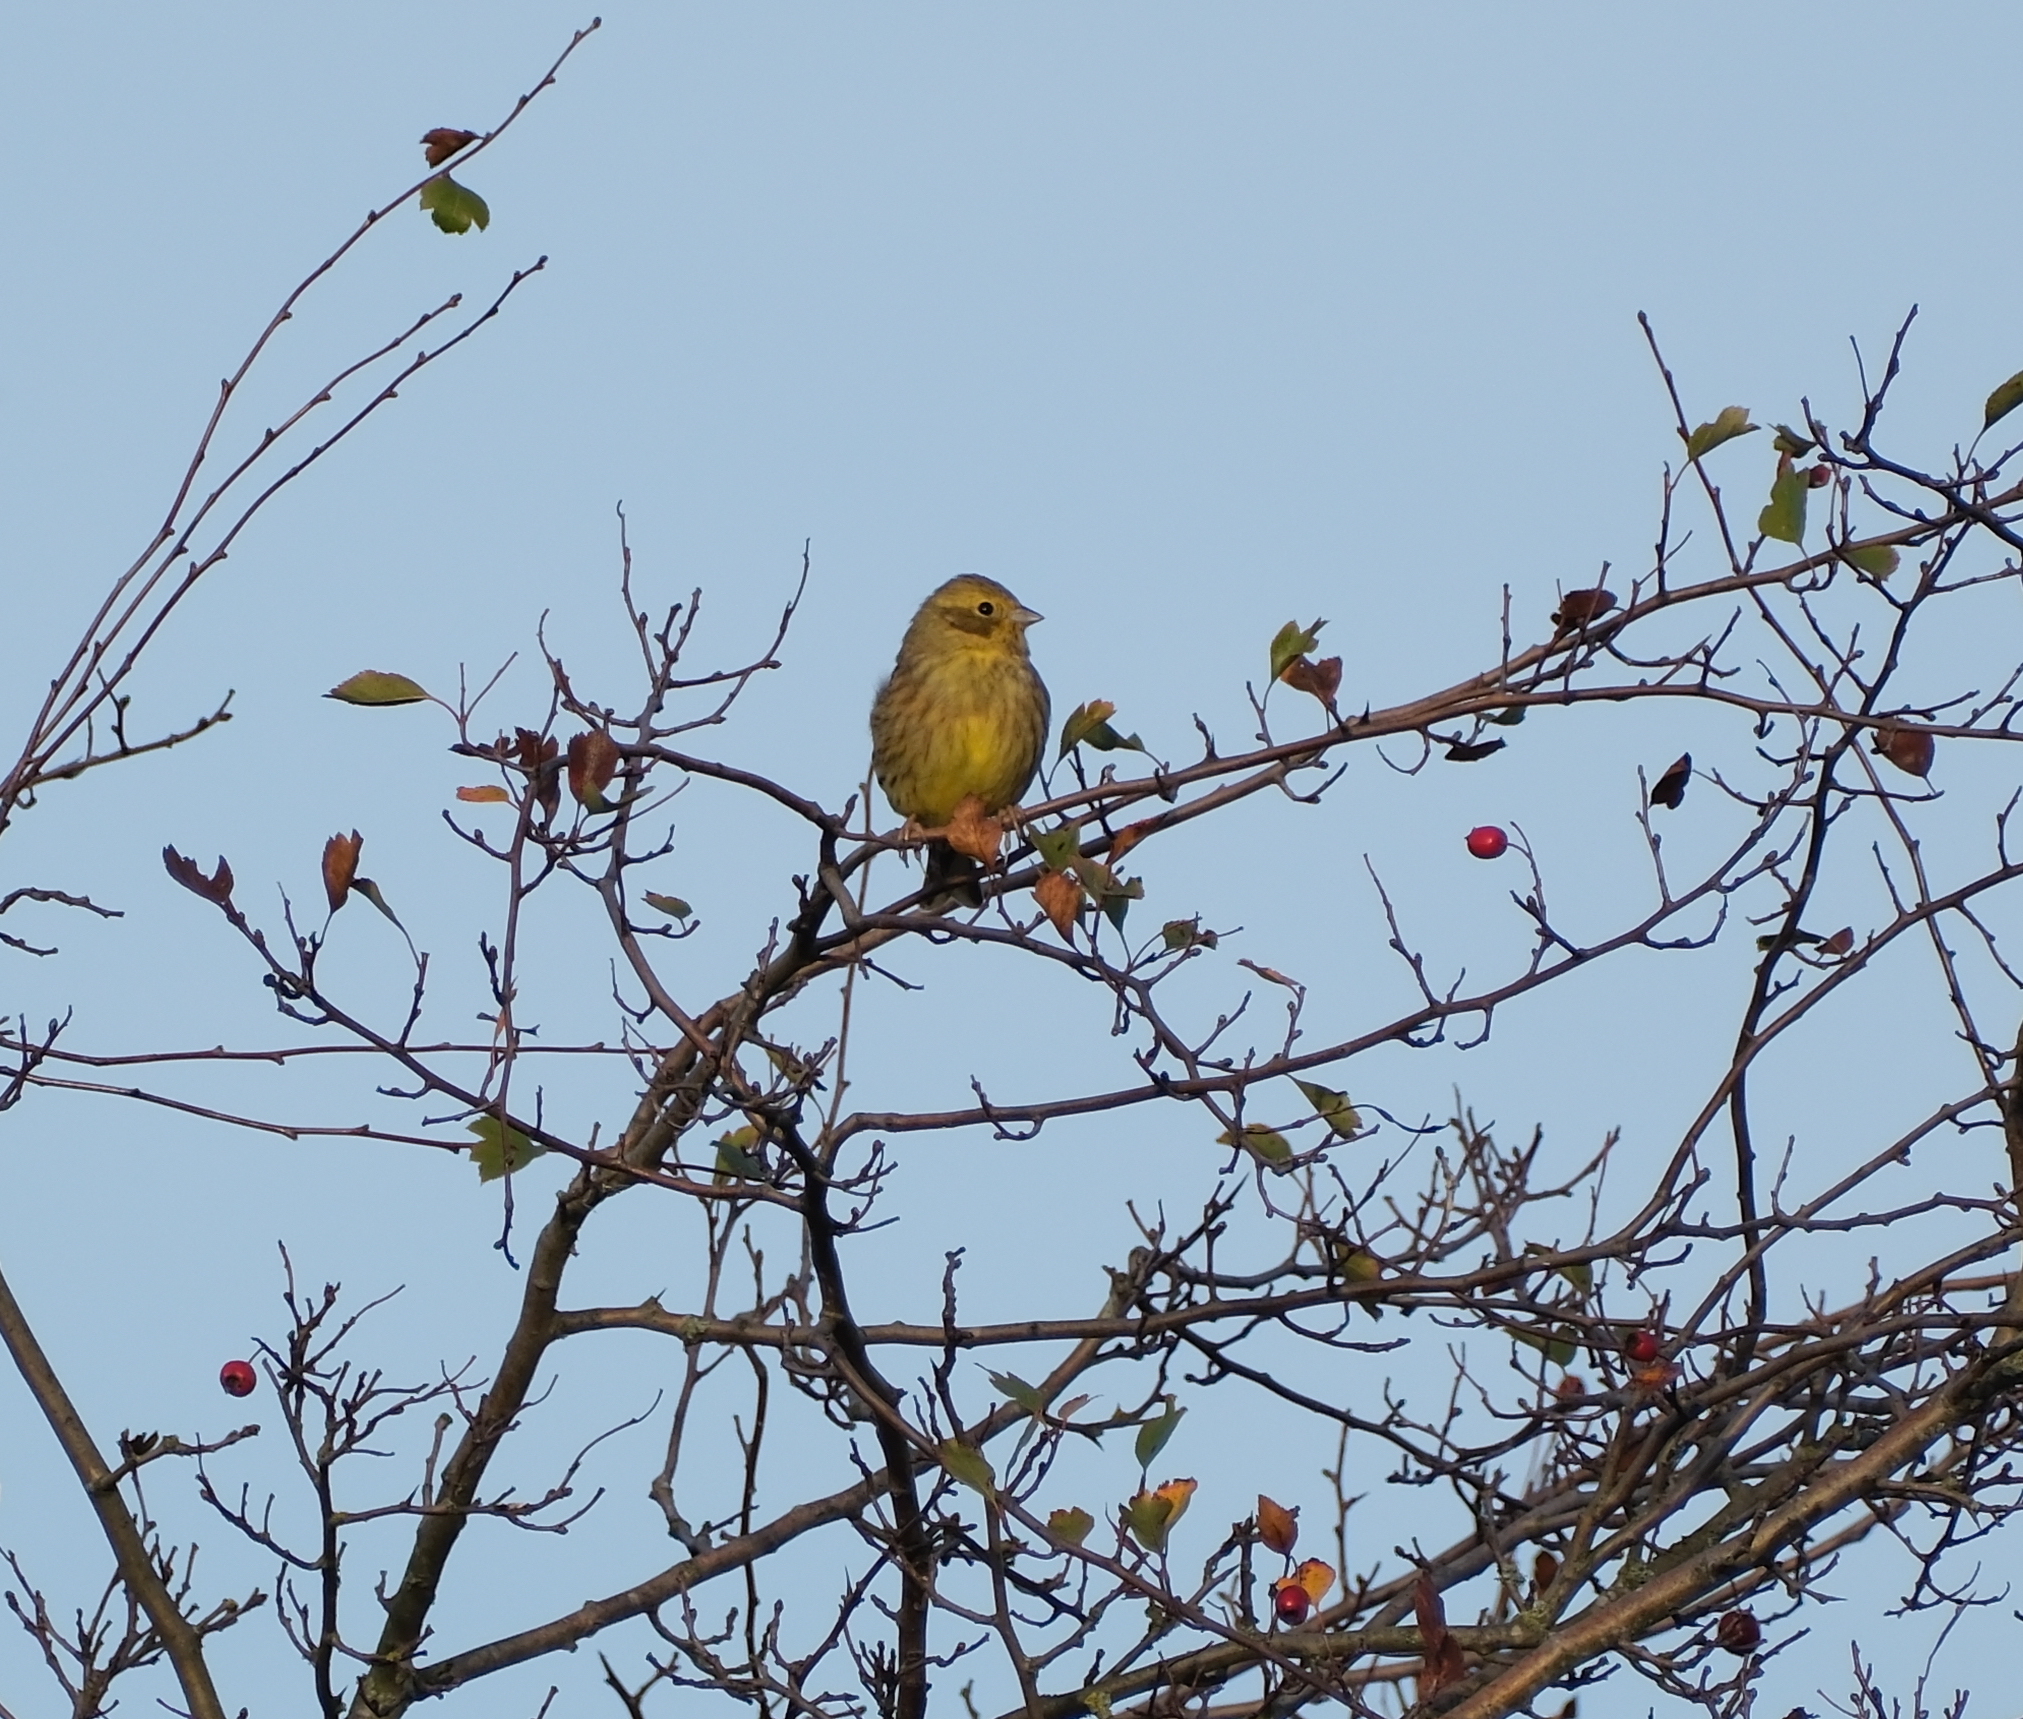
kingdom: Animalia
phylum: Chordata
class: Aves
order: Passeriformes
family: Emberizidae
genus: Emberiza
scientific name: Emberiza citrinella
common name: Yellowhammer
